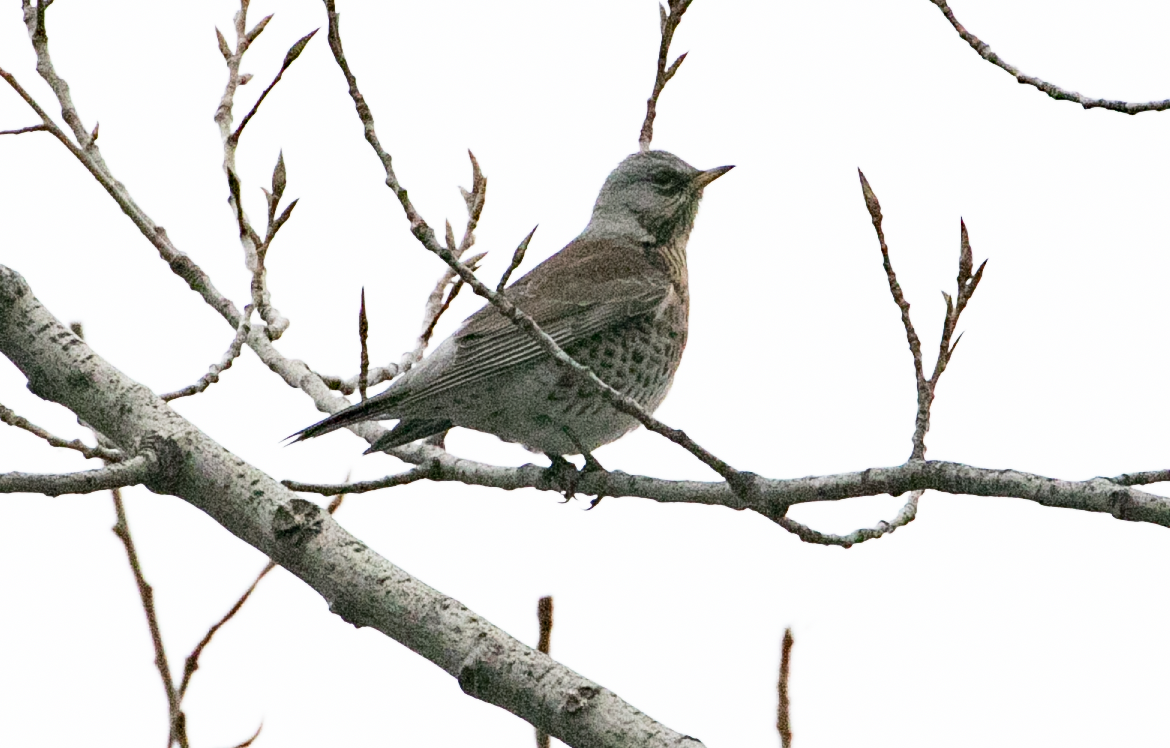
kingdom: Animalia
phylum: Chordata
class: Aves
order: Passeriformes
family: Turdidae
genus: Turdus
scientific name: Turdus pilaris
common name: Fieldfare
